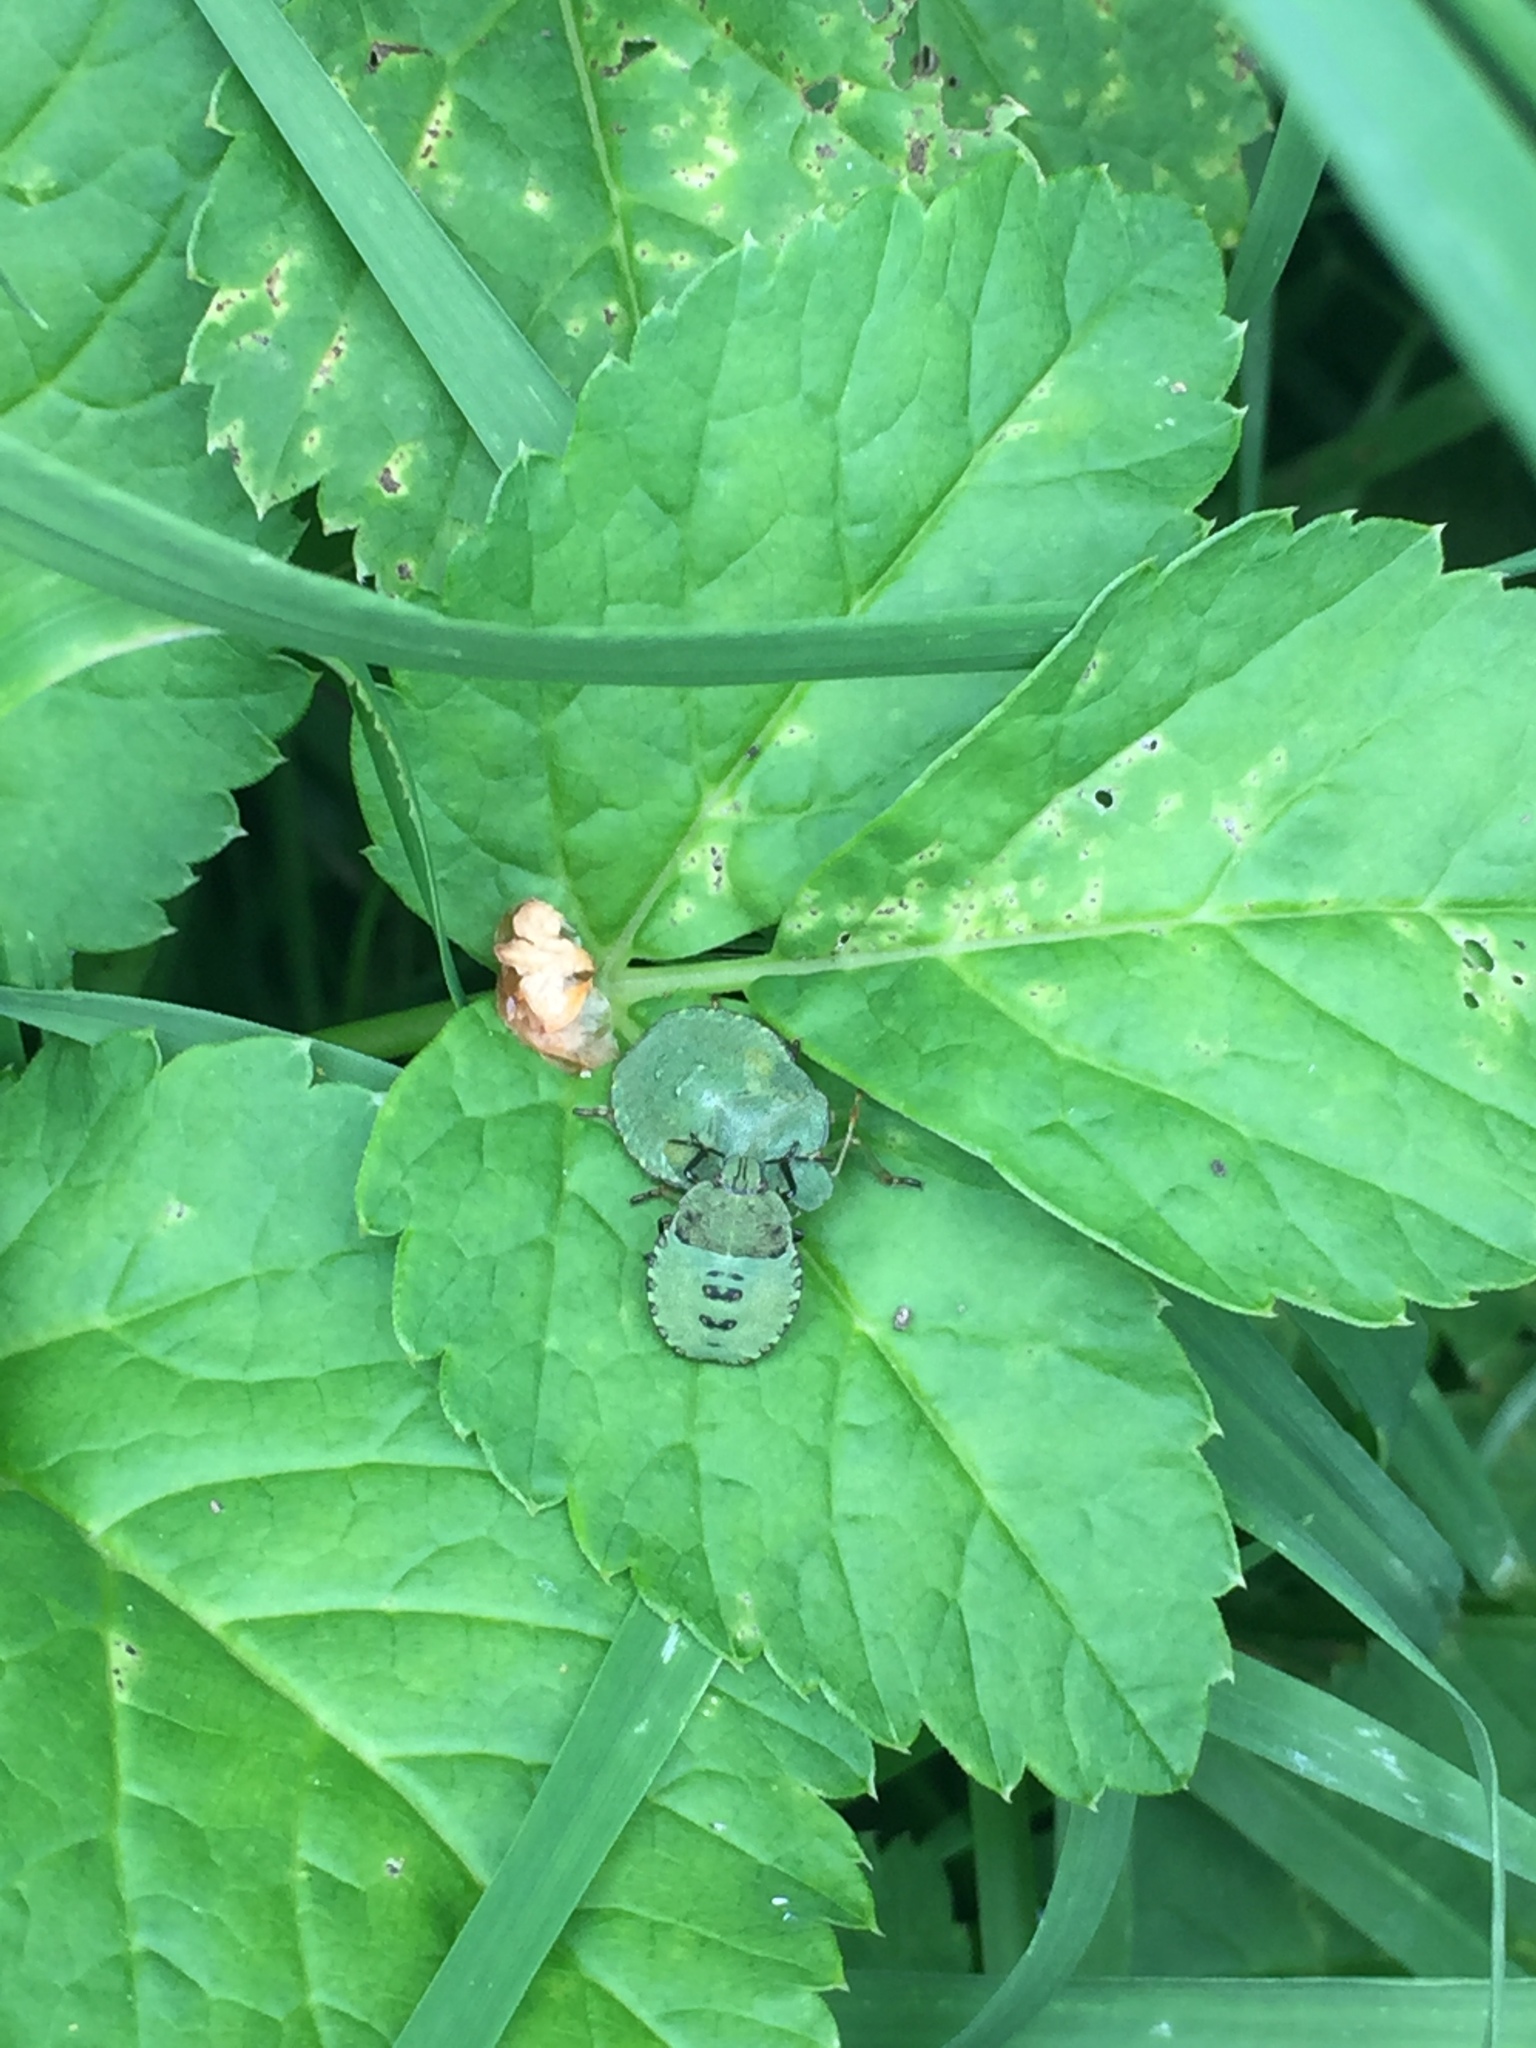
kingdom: Animalia
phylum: Arthropoda
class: Insecta
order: Hemiptera
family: Pentatomidae
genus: Palomena
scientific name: Palomena prasina
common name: Green shieldbug
